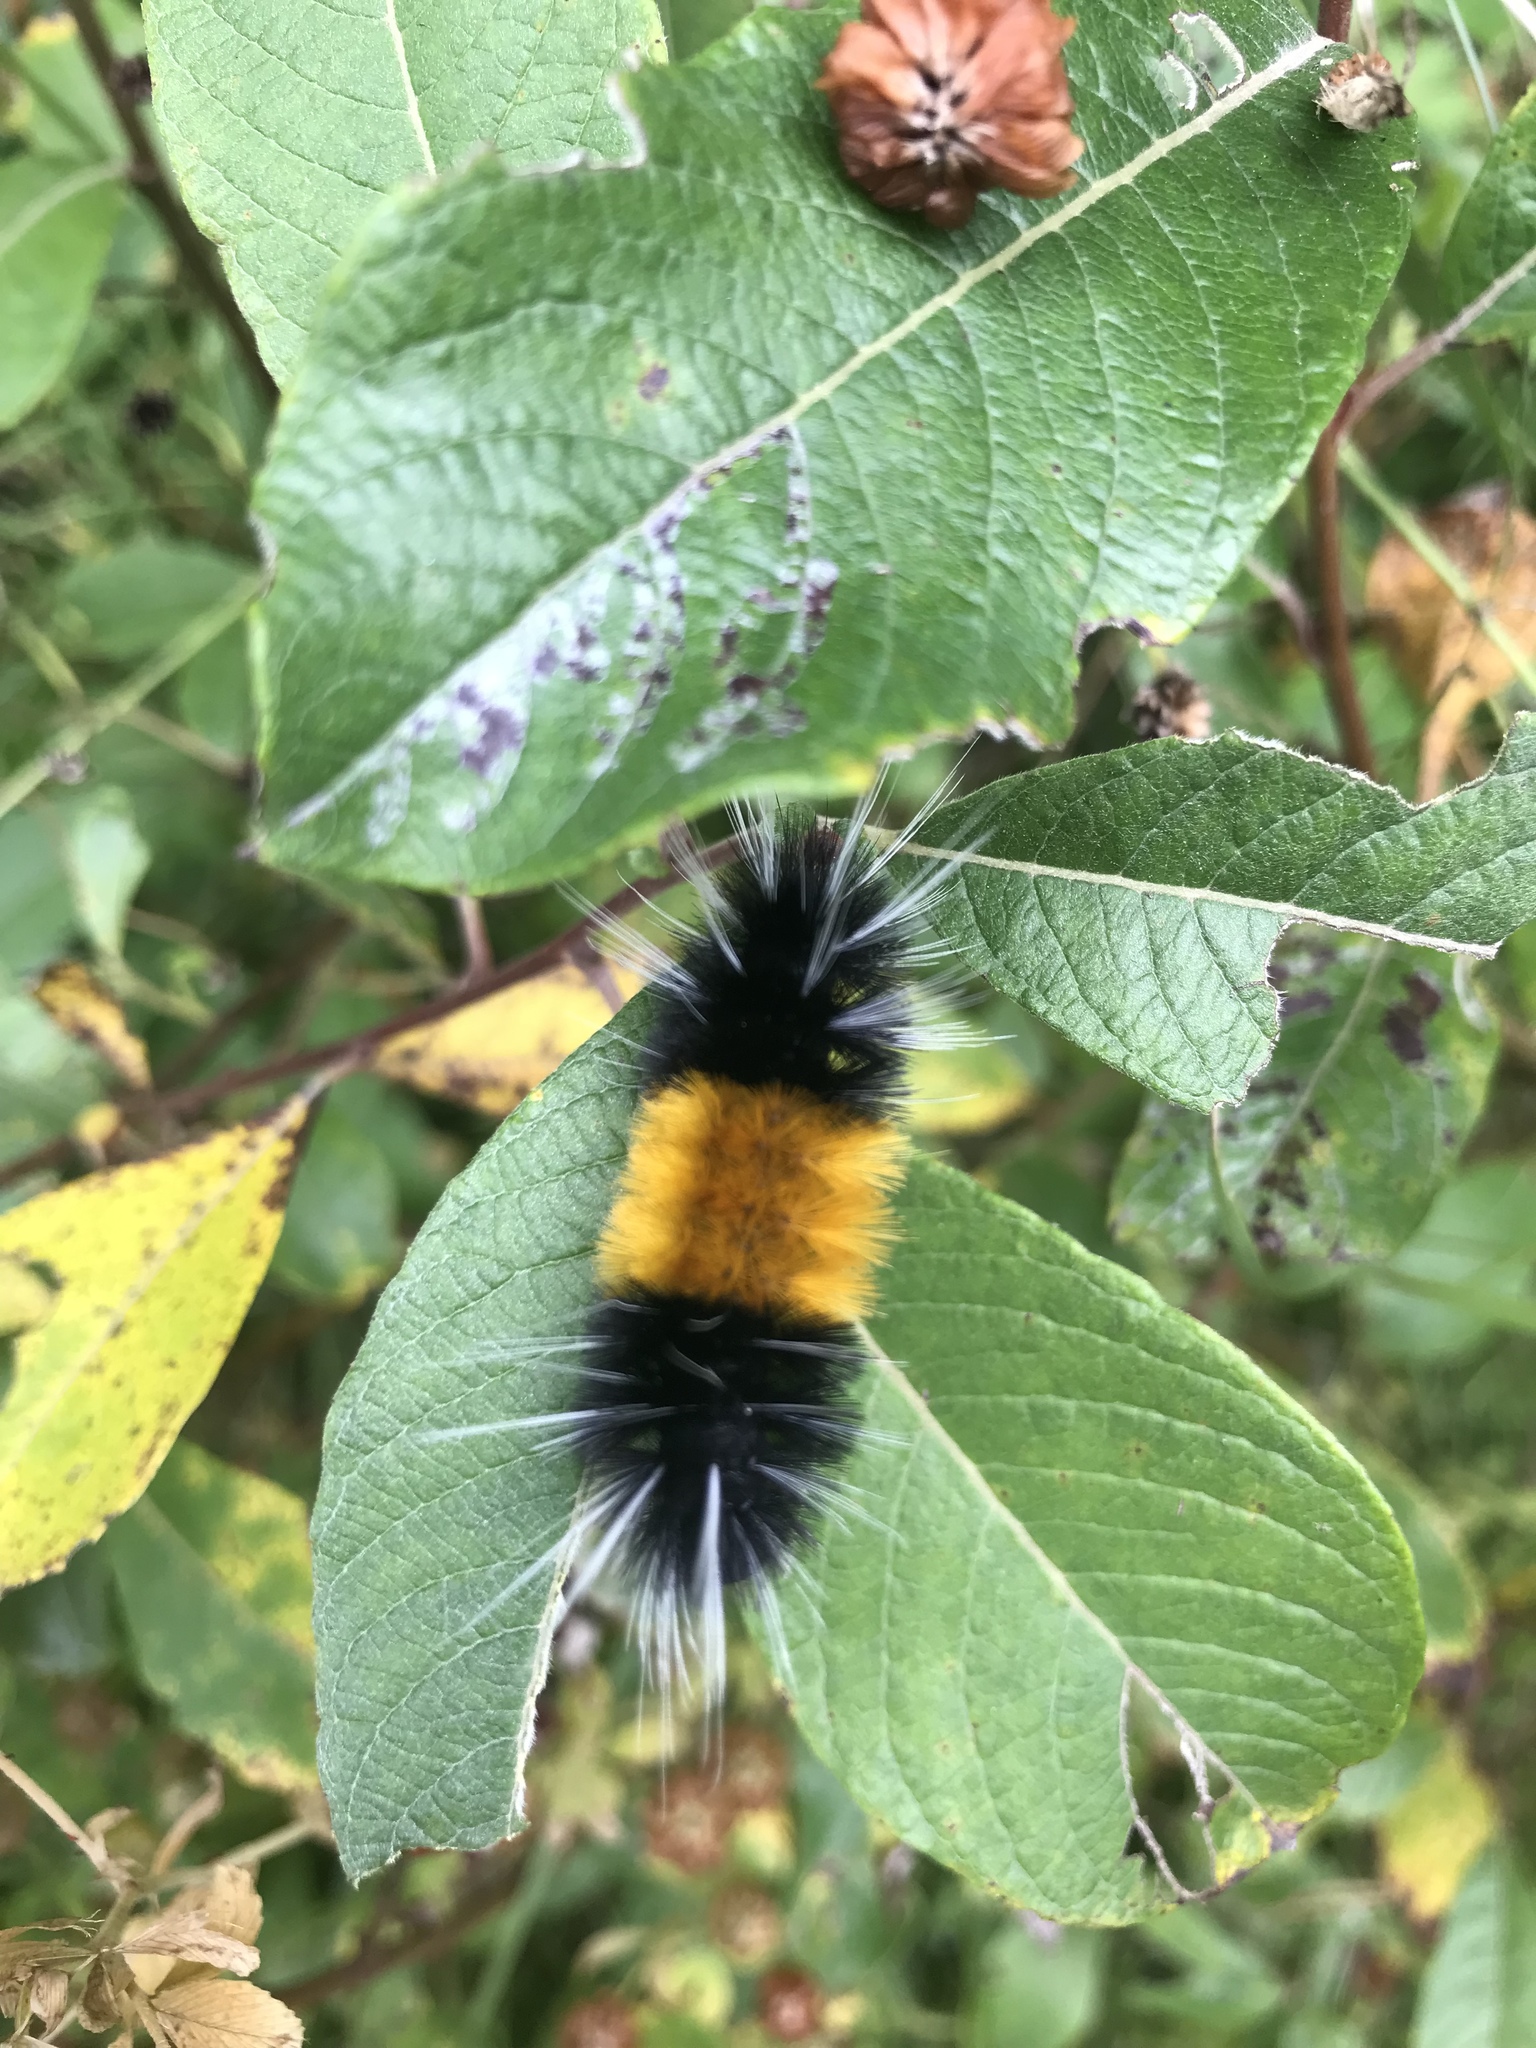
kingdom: Animalia
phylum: Arthropoda
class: Insecta
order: Lepidoptera
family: Erebidae
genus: Lophocampa
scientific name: Lophocampa maculata
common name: Spotted tussock moth
